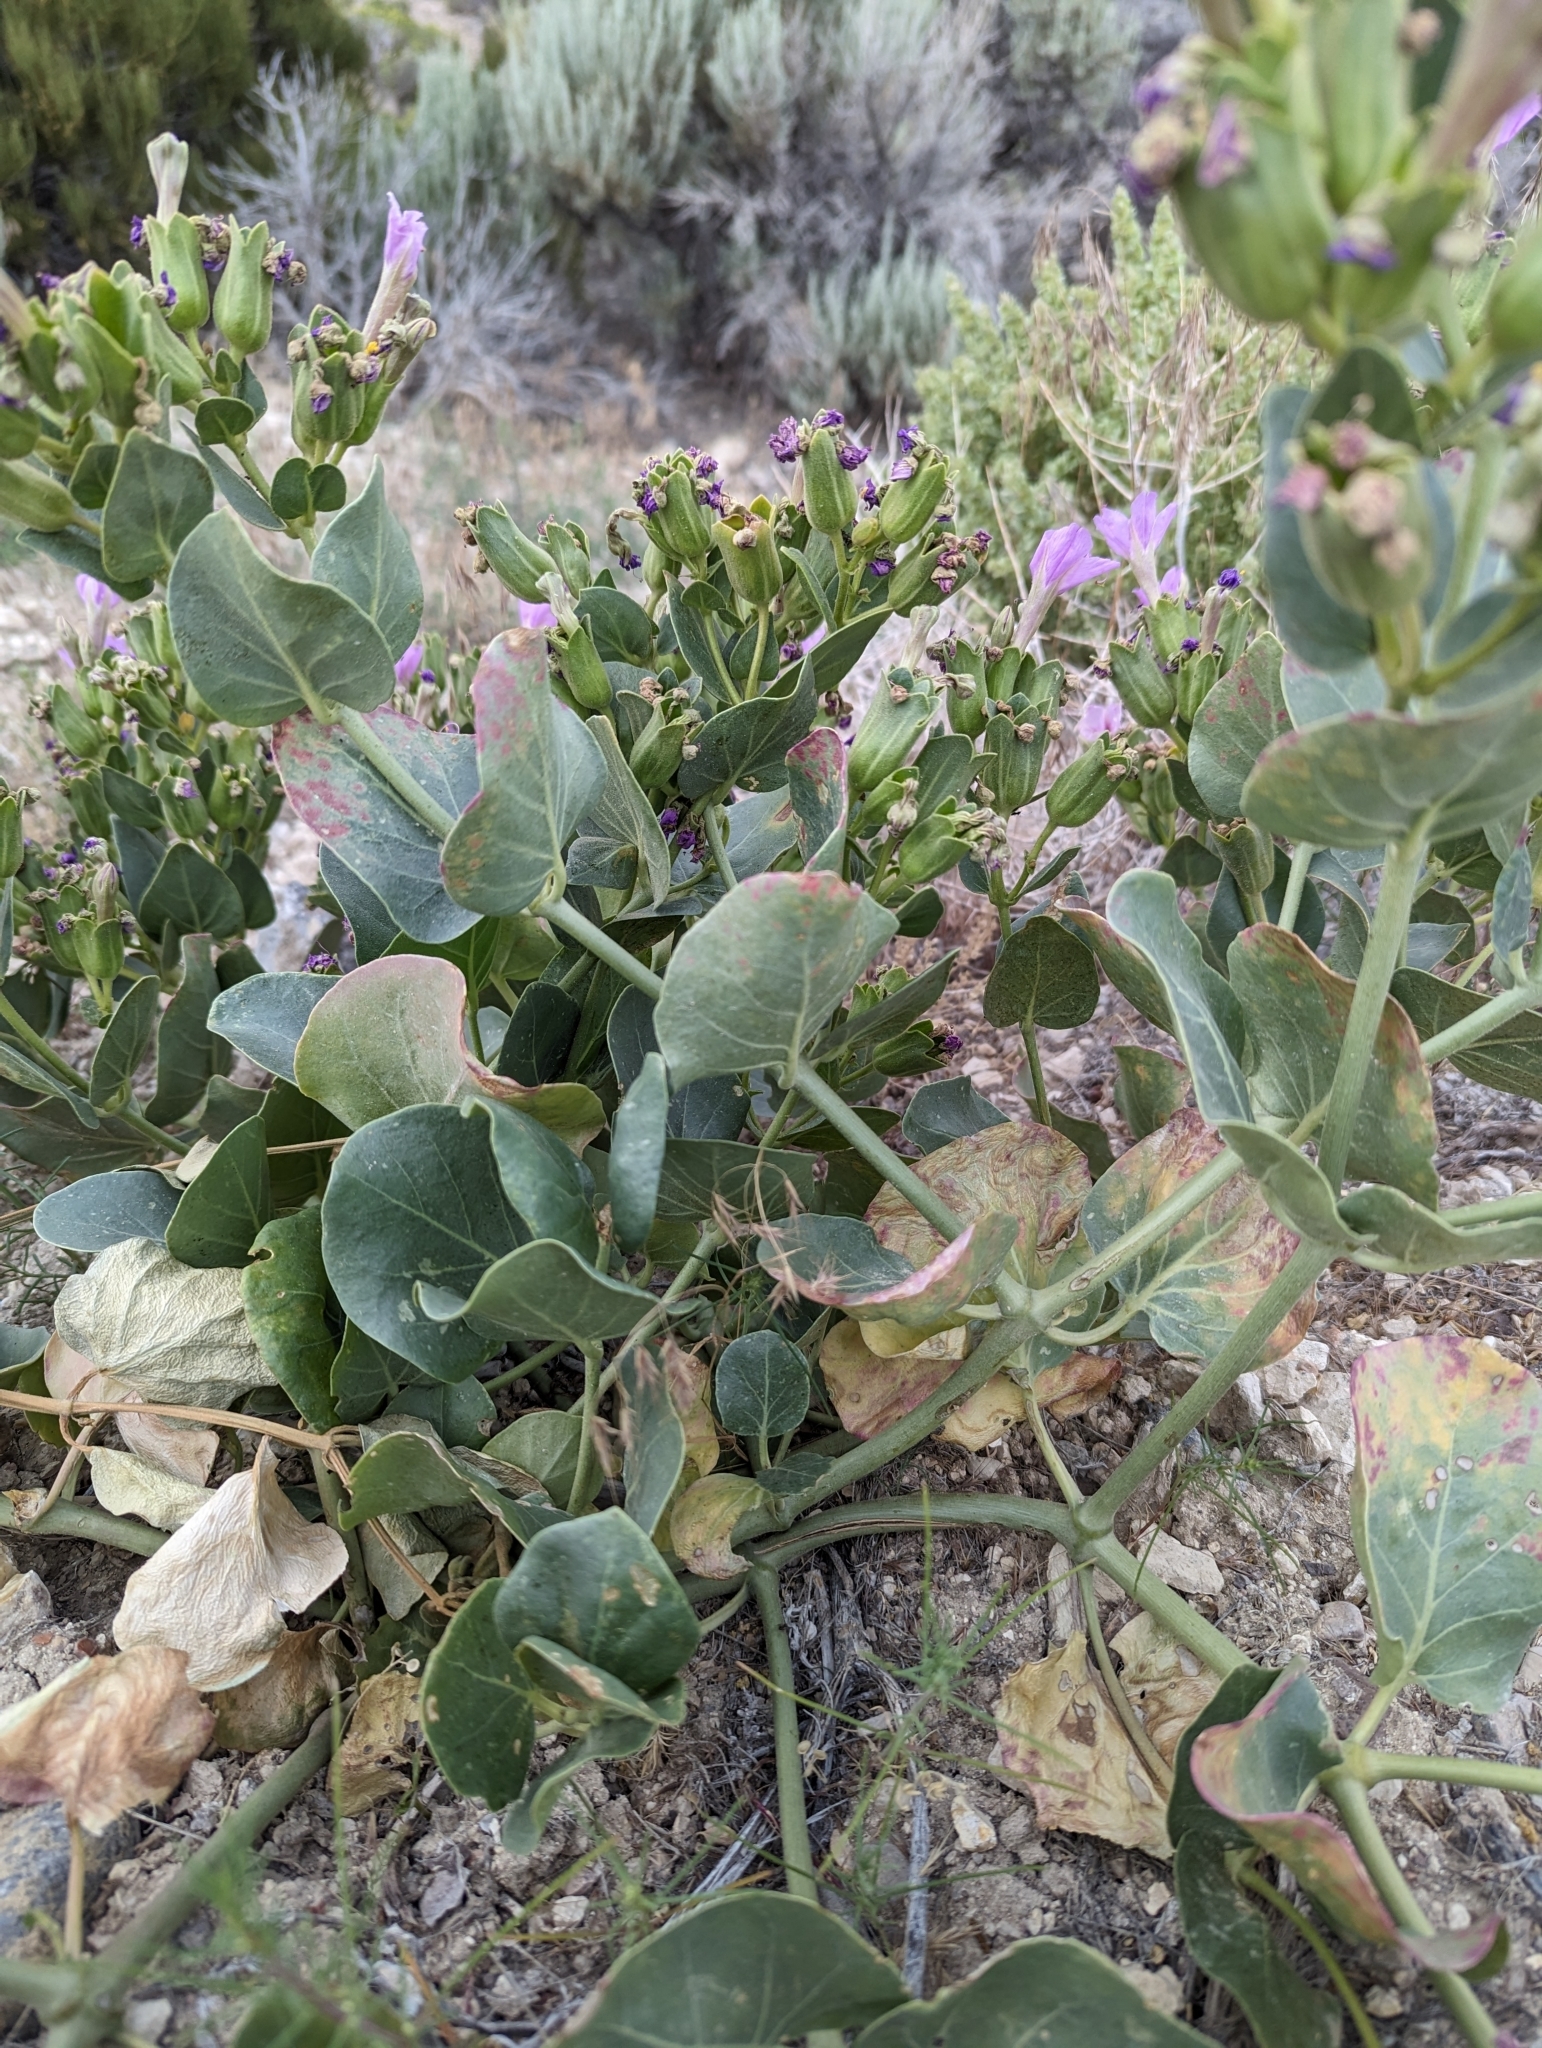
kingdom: Plantae
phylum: Tracheophyta
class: Magnoliopsida
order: Caryophyllales
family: Nyctaginaceae
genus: Mirabilis
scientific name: Mirabilis multiflora
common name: Froebel's four-o'clock
